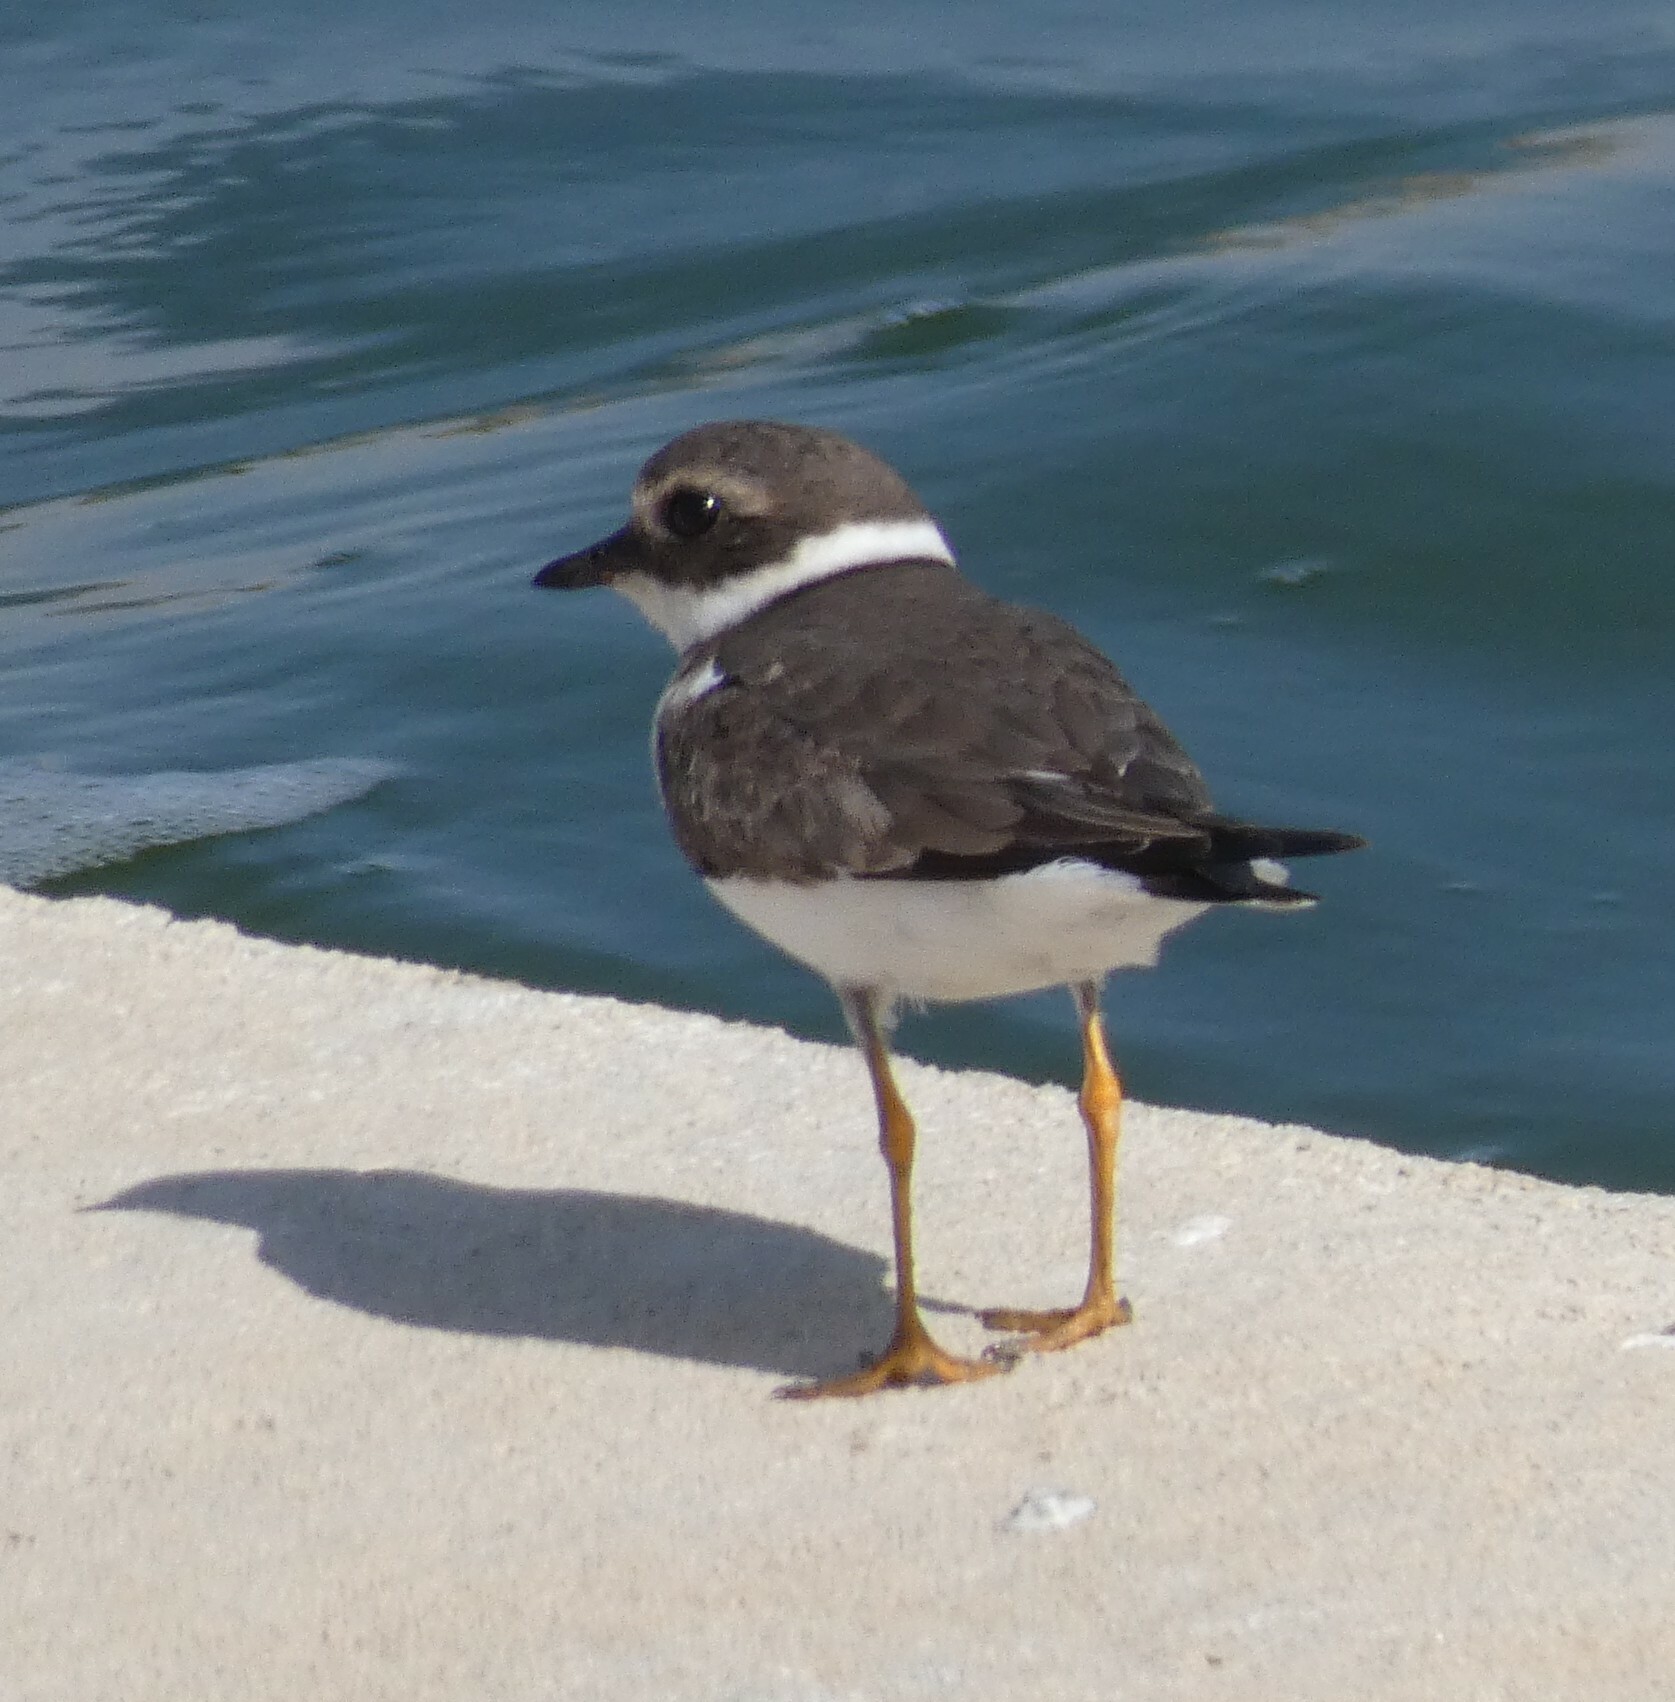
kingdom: Animalia
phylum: Chordata
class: Aves
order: Charadriiformes
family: Charadriidae
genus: Charadrius
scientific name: Charadrius hiaticula
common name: Common ringed plover
